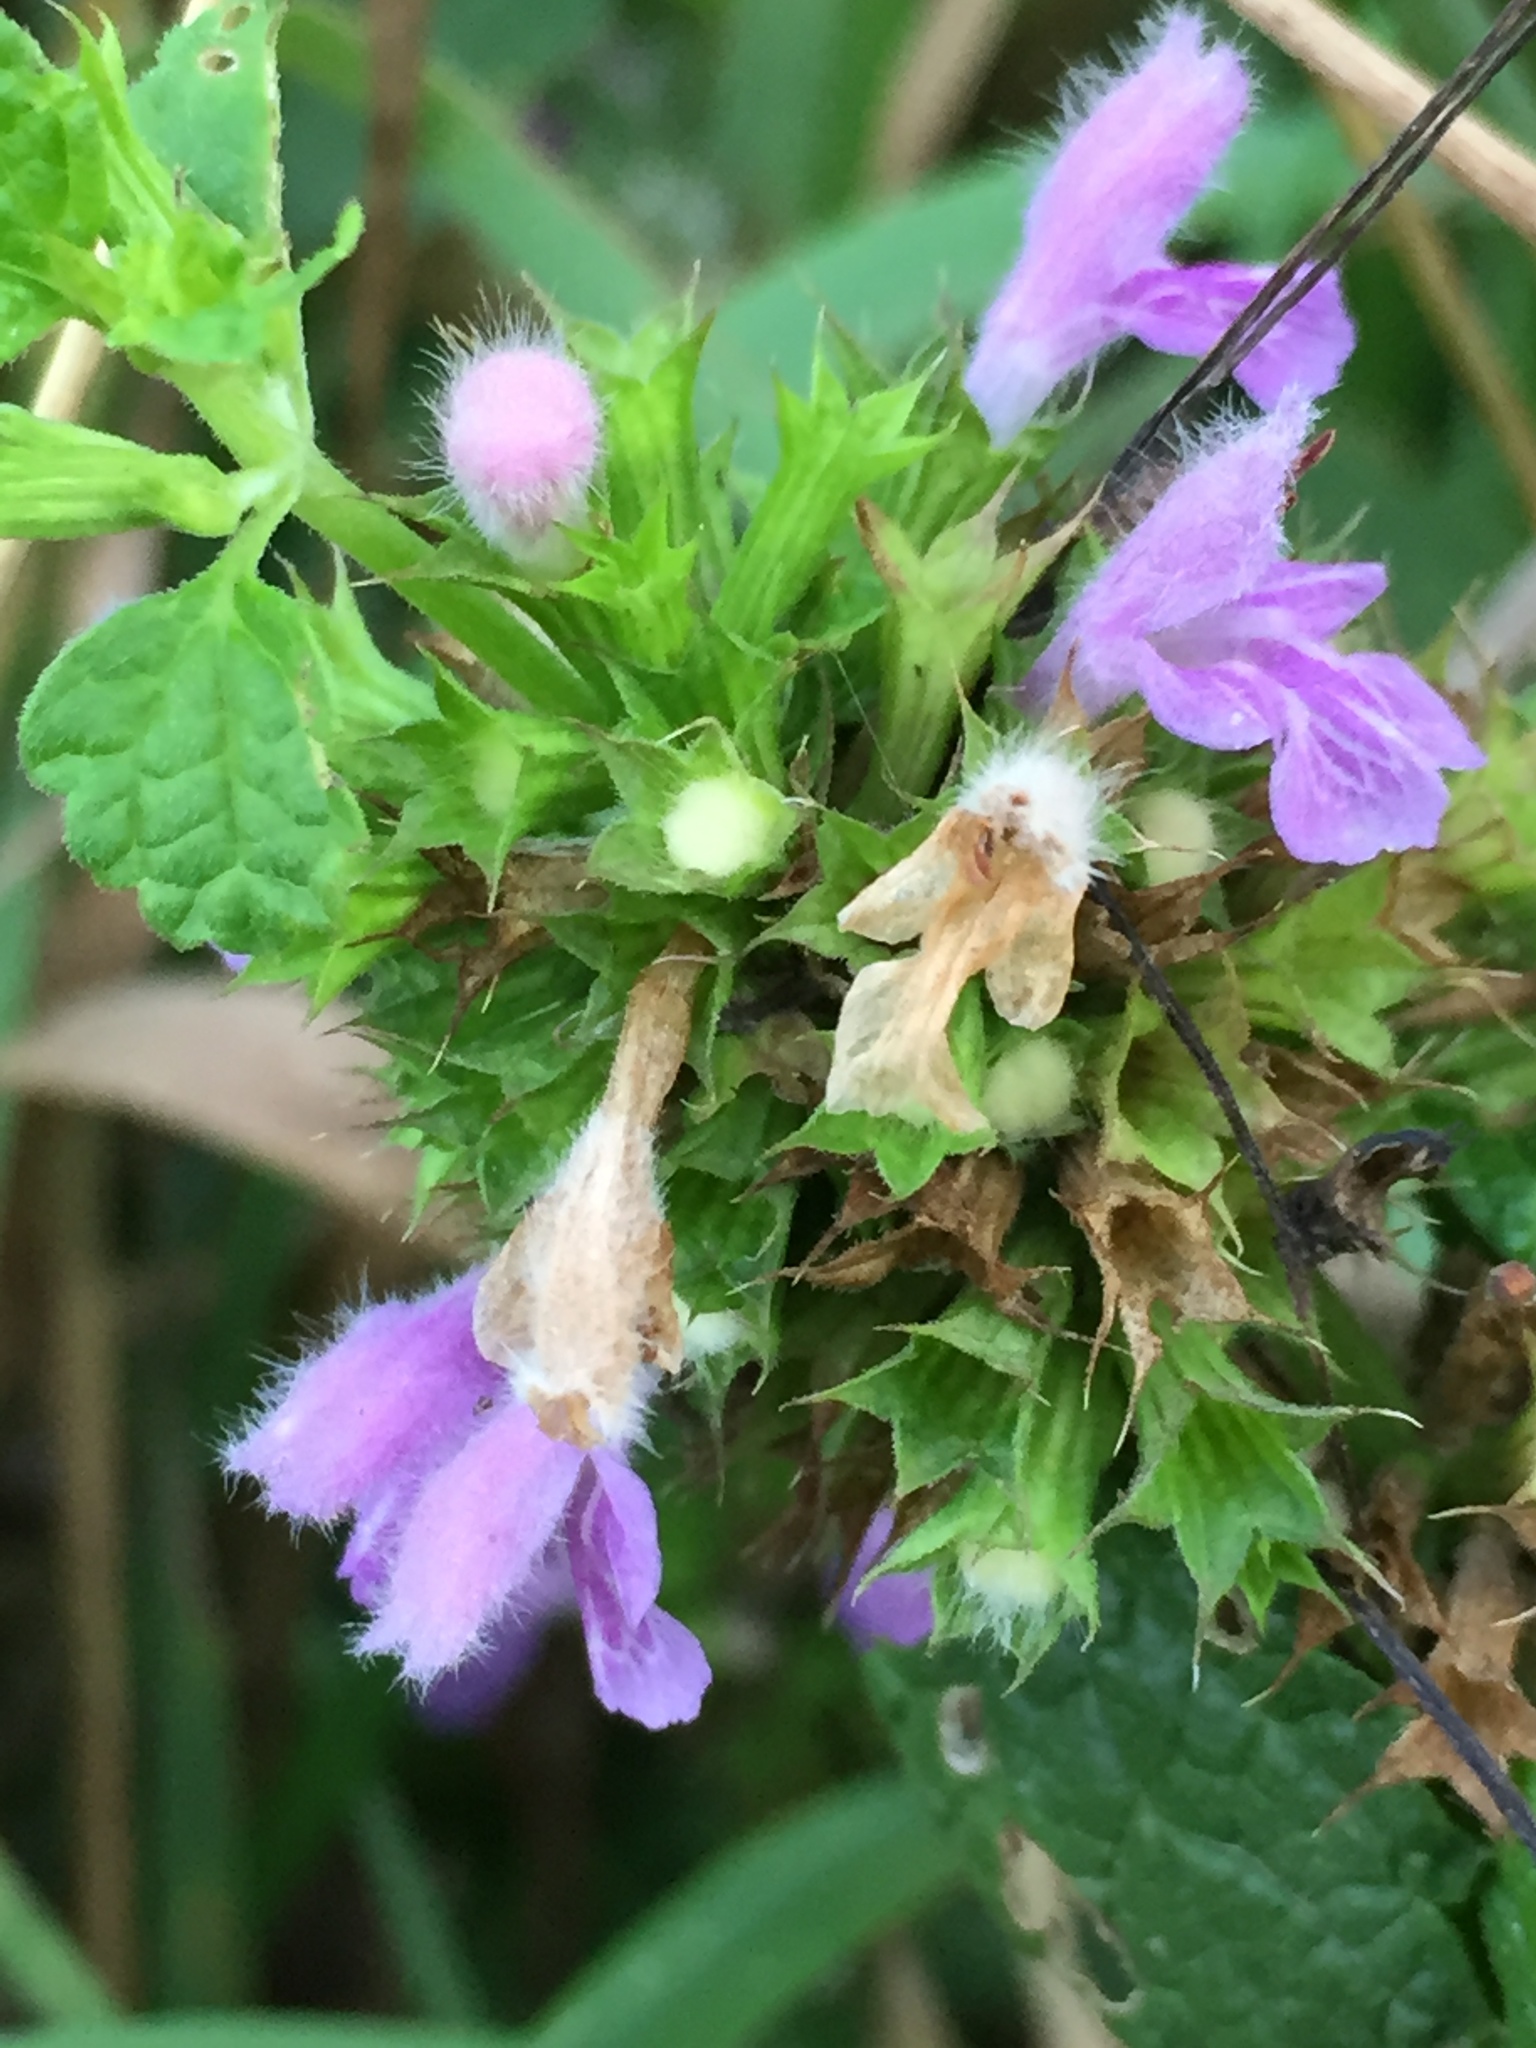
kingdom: Plantae
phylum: Tracheophyta
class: Magnoliopsida
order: Lamiales
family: Lamiaceae
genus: Ballota
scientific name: Ballota nigra
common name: Black horehound
